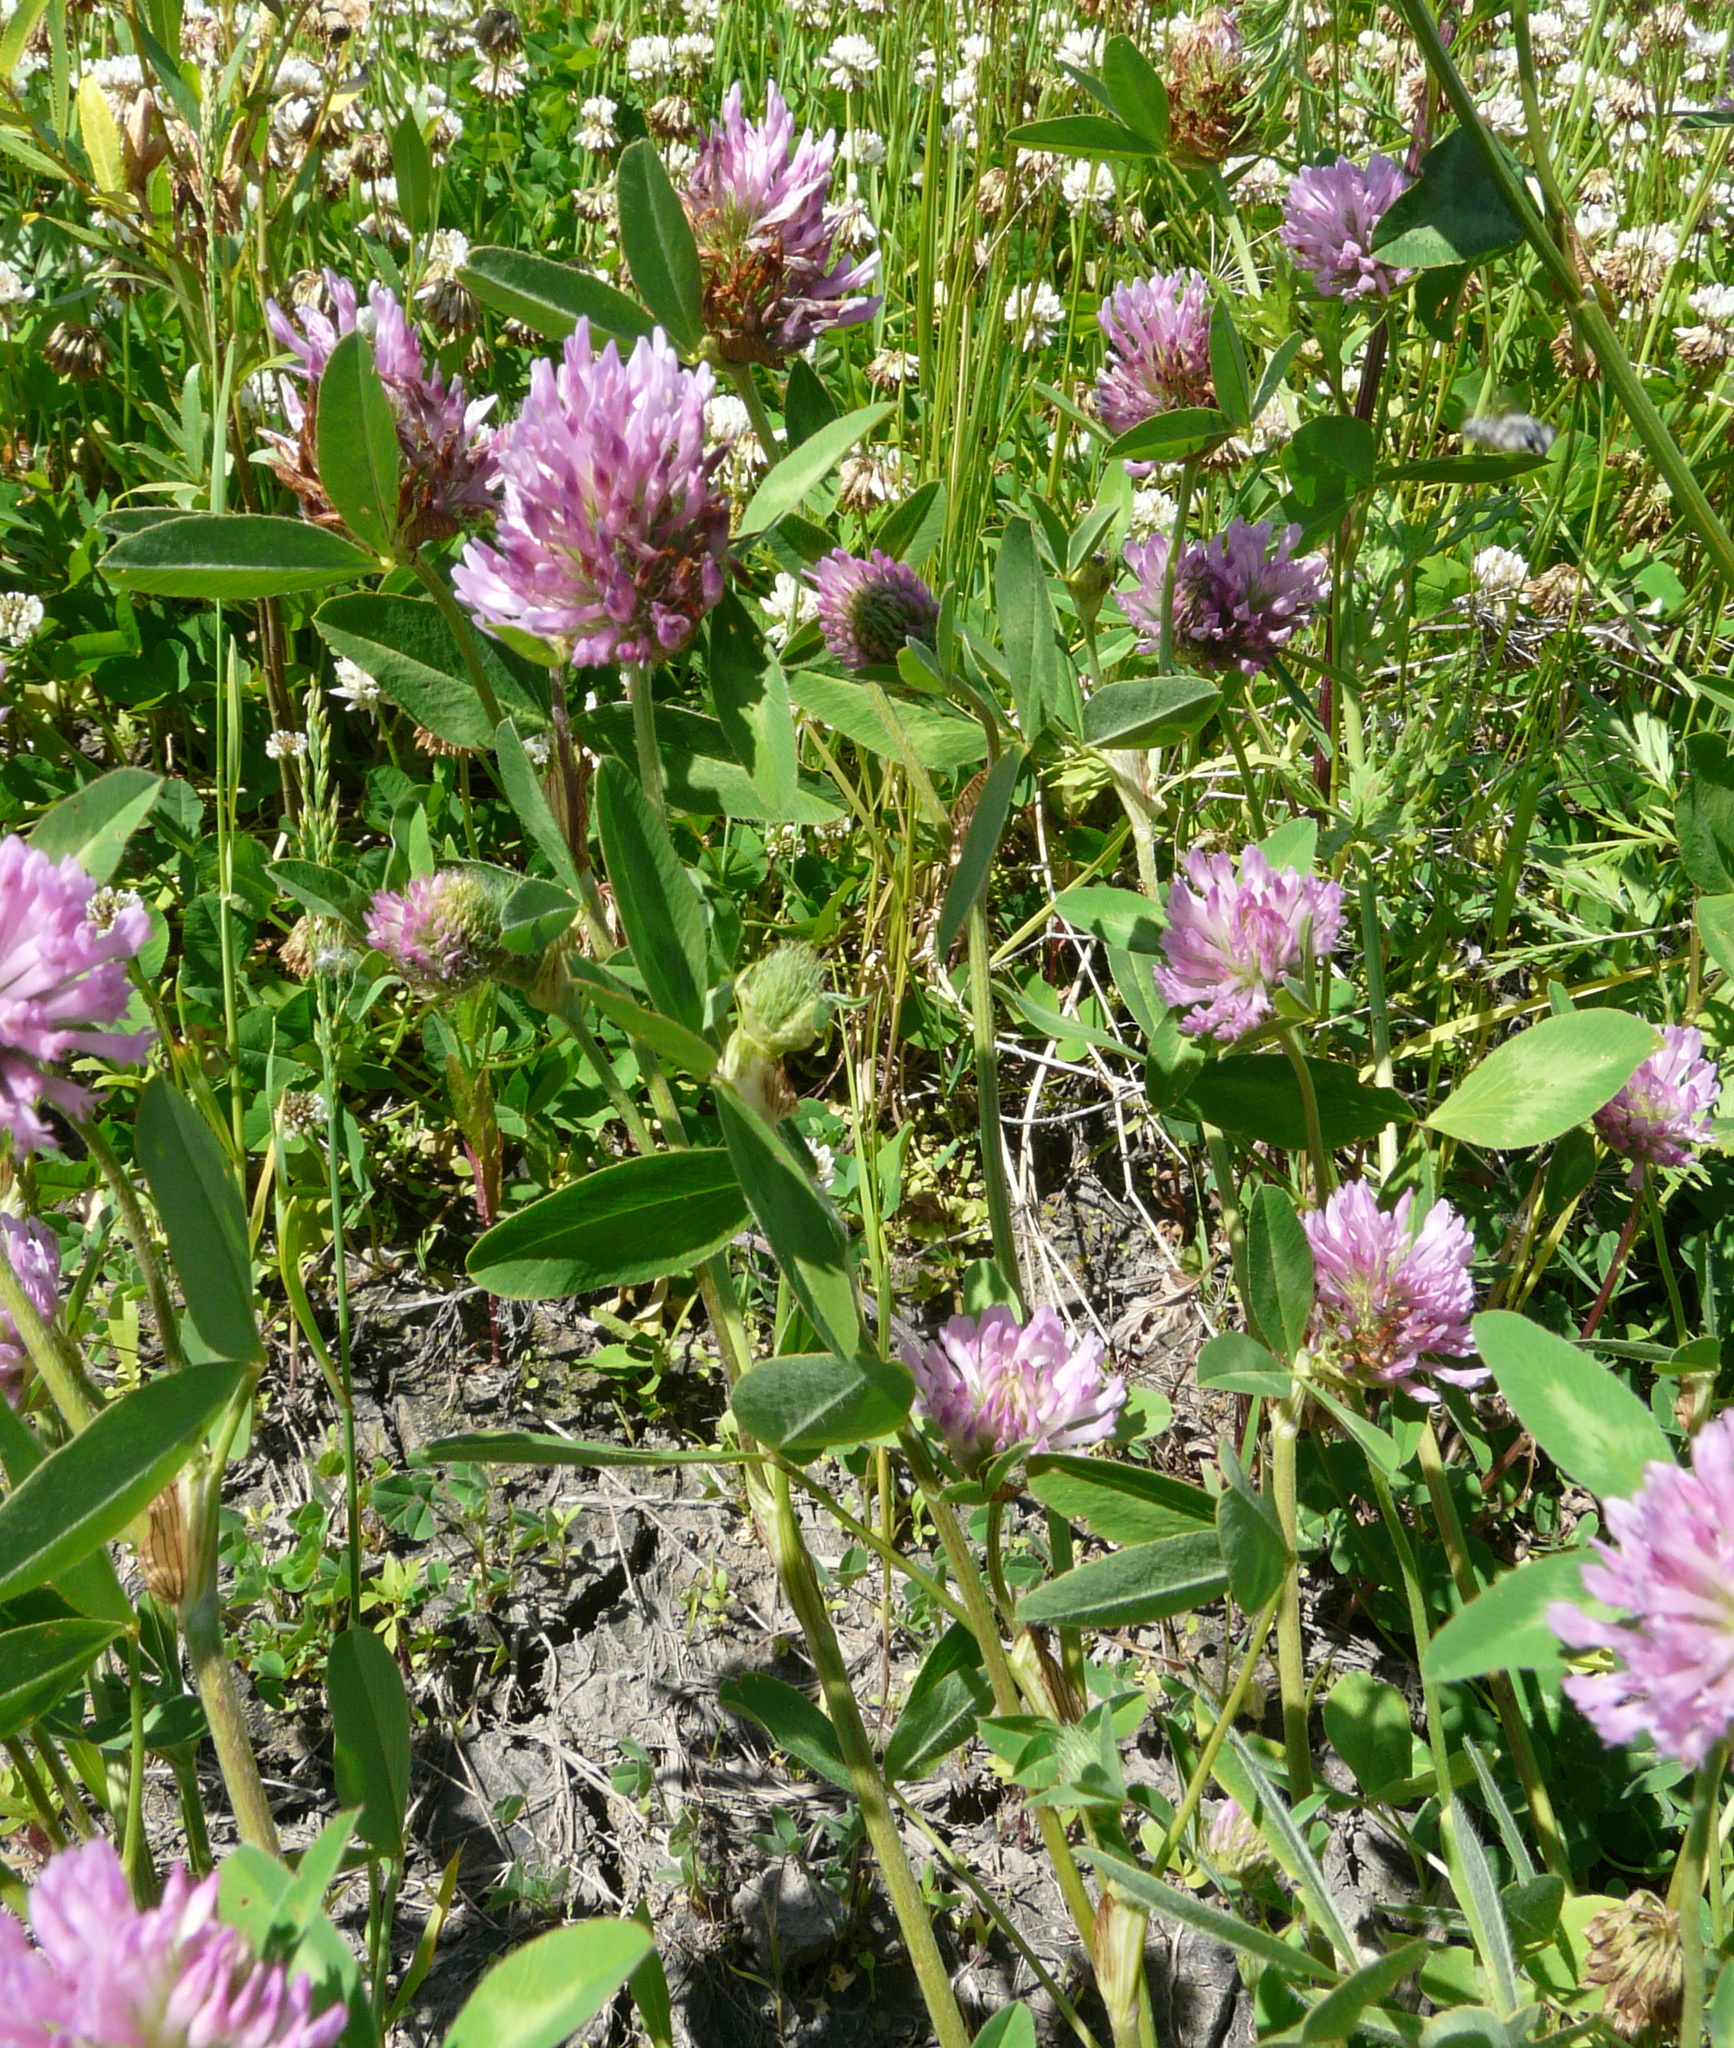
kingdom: Plantae
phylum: Tracheophyta
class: Magnoliopsida
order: Fabales
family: Fabaceae
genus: Trifolium
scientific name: Trifolium pratense
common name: Red clover
